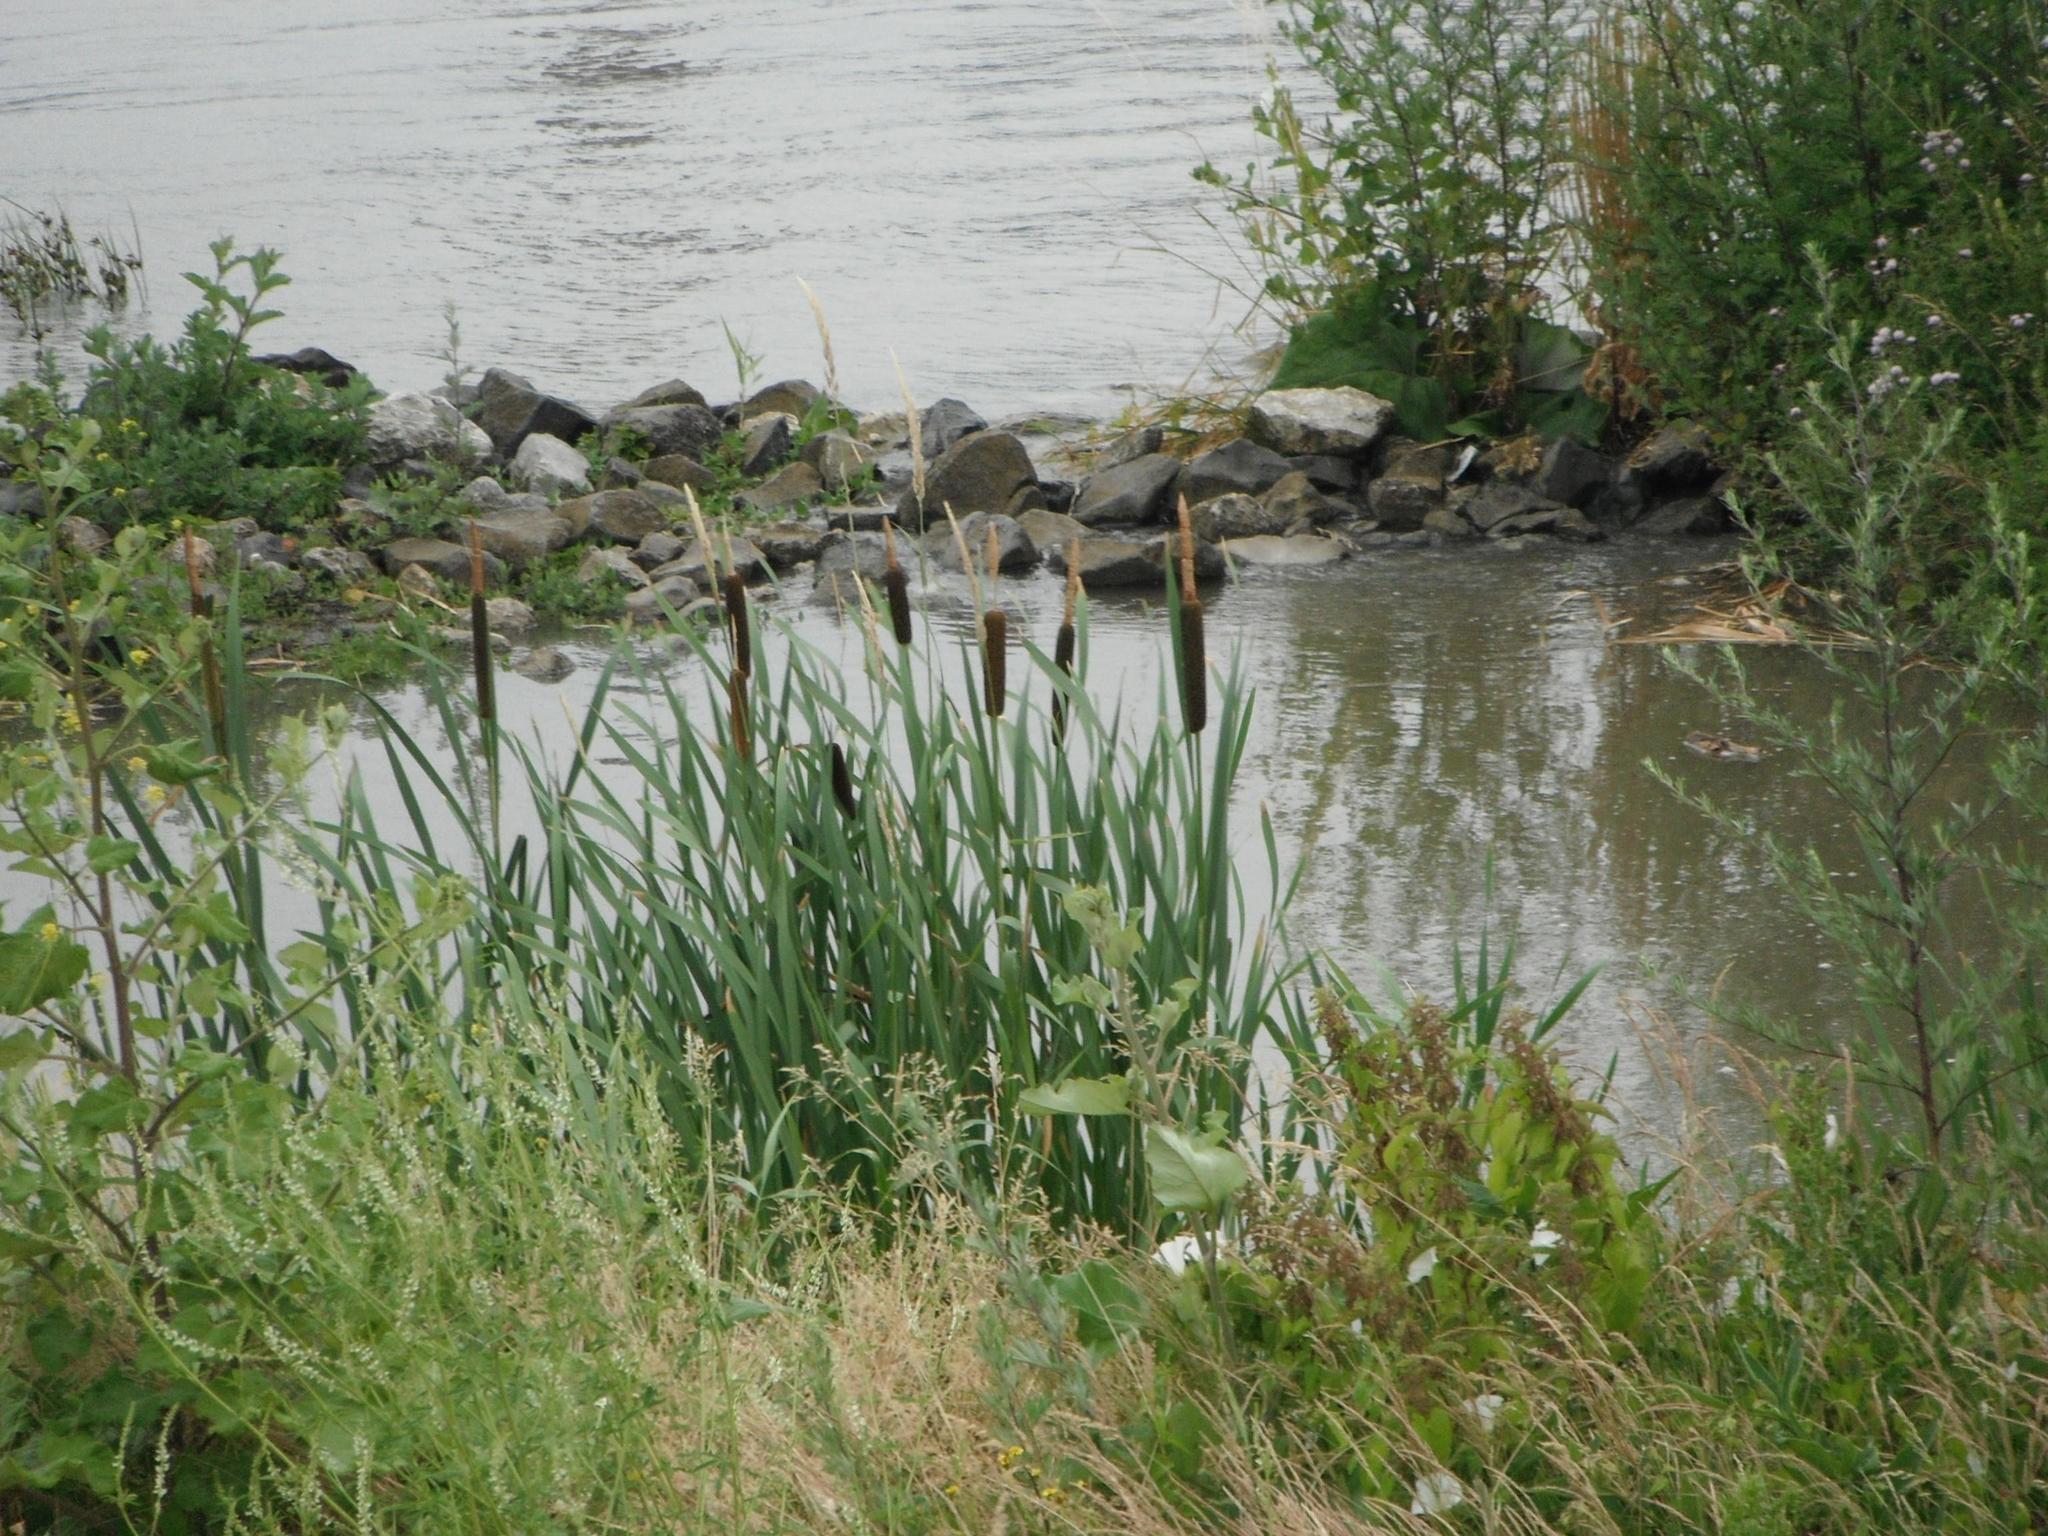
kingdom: Plantae
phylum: Tracheophyta
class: Liliopsida
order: Poales
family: Typhaceae
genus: Typha
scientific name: Typha latifolia
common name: Broadleaf cattail
